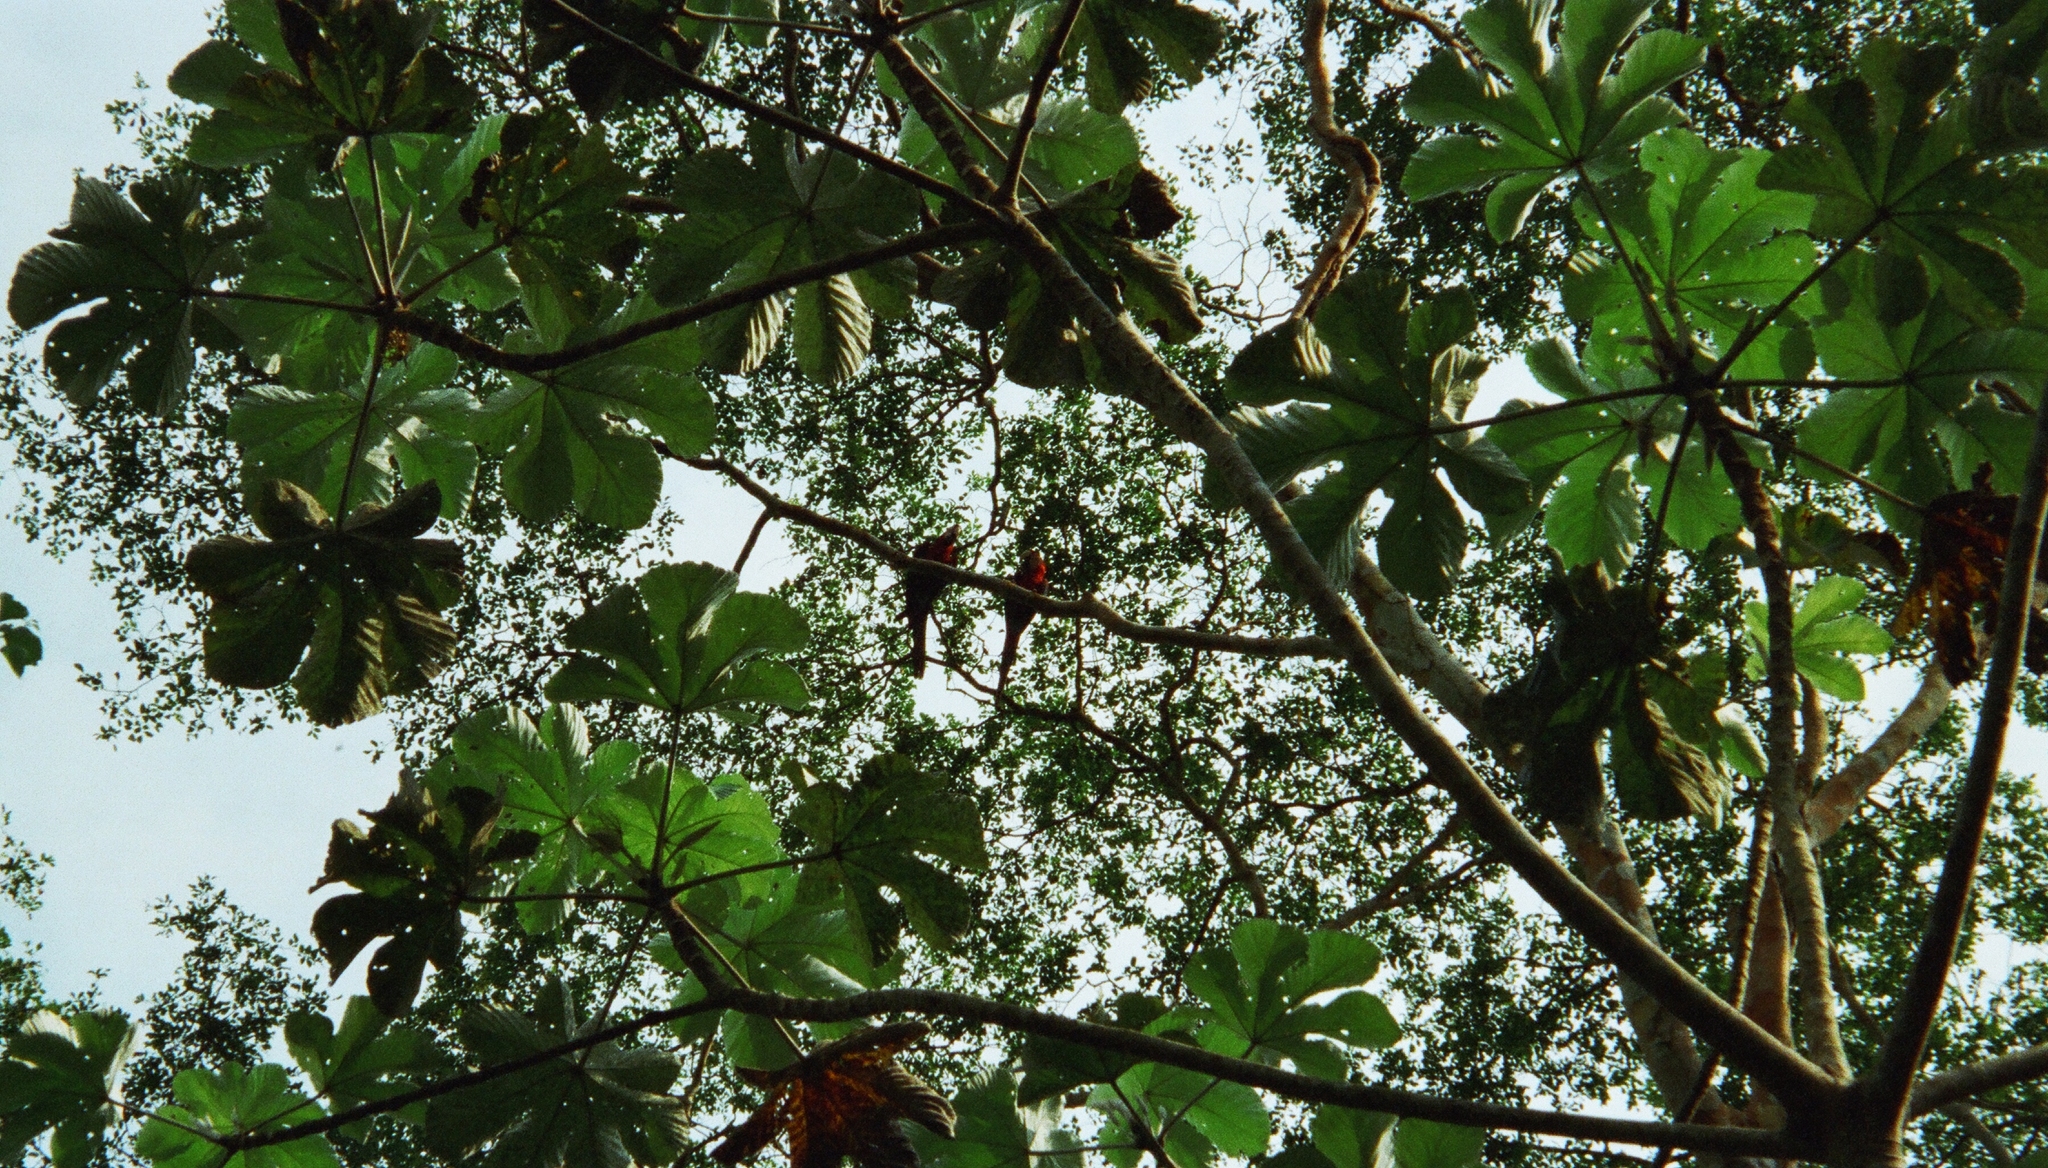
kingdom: Animalia
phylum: Chordata
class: Aves
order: Psittaciformes
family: Psittacidae
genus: Ara
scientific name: Ara chloropterus
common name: Red-and-green macaw
